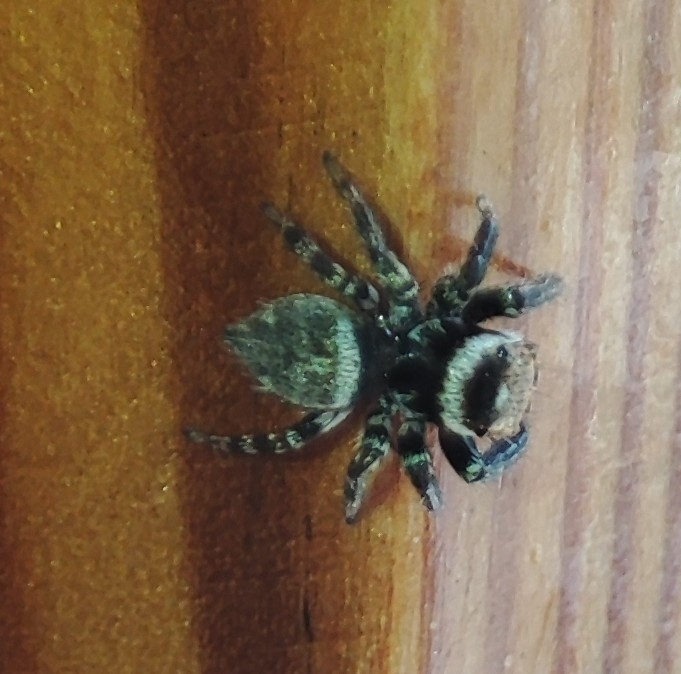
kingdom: Animalia
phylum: Arthropoda
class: Arachnida
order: Araneae
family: Salticidae
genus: Evarcha
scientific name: Evarcha jucunda
